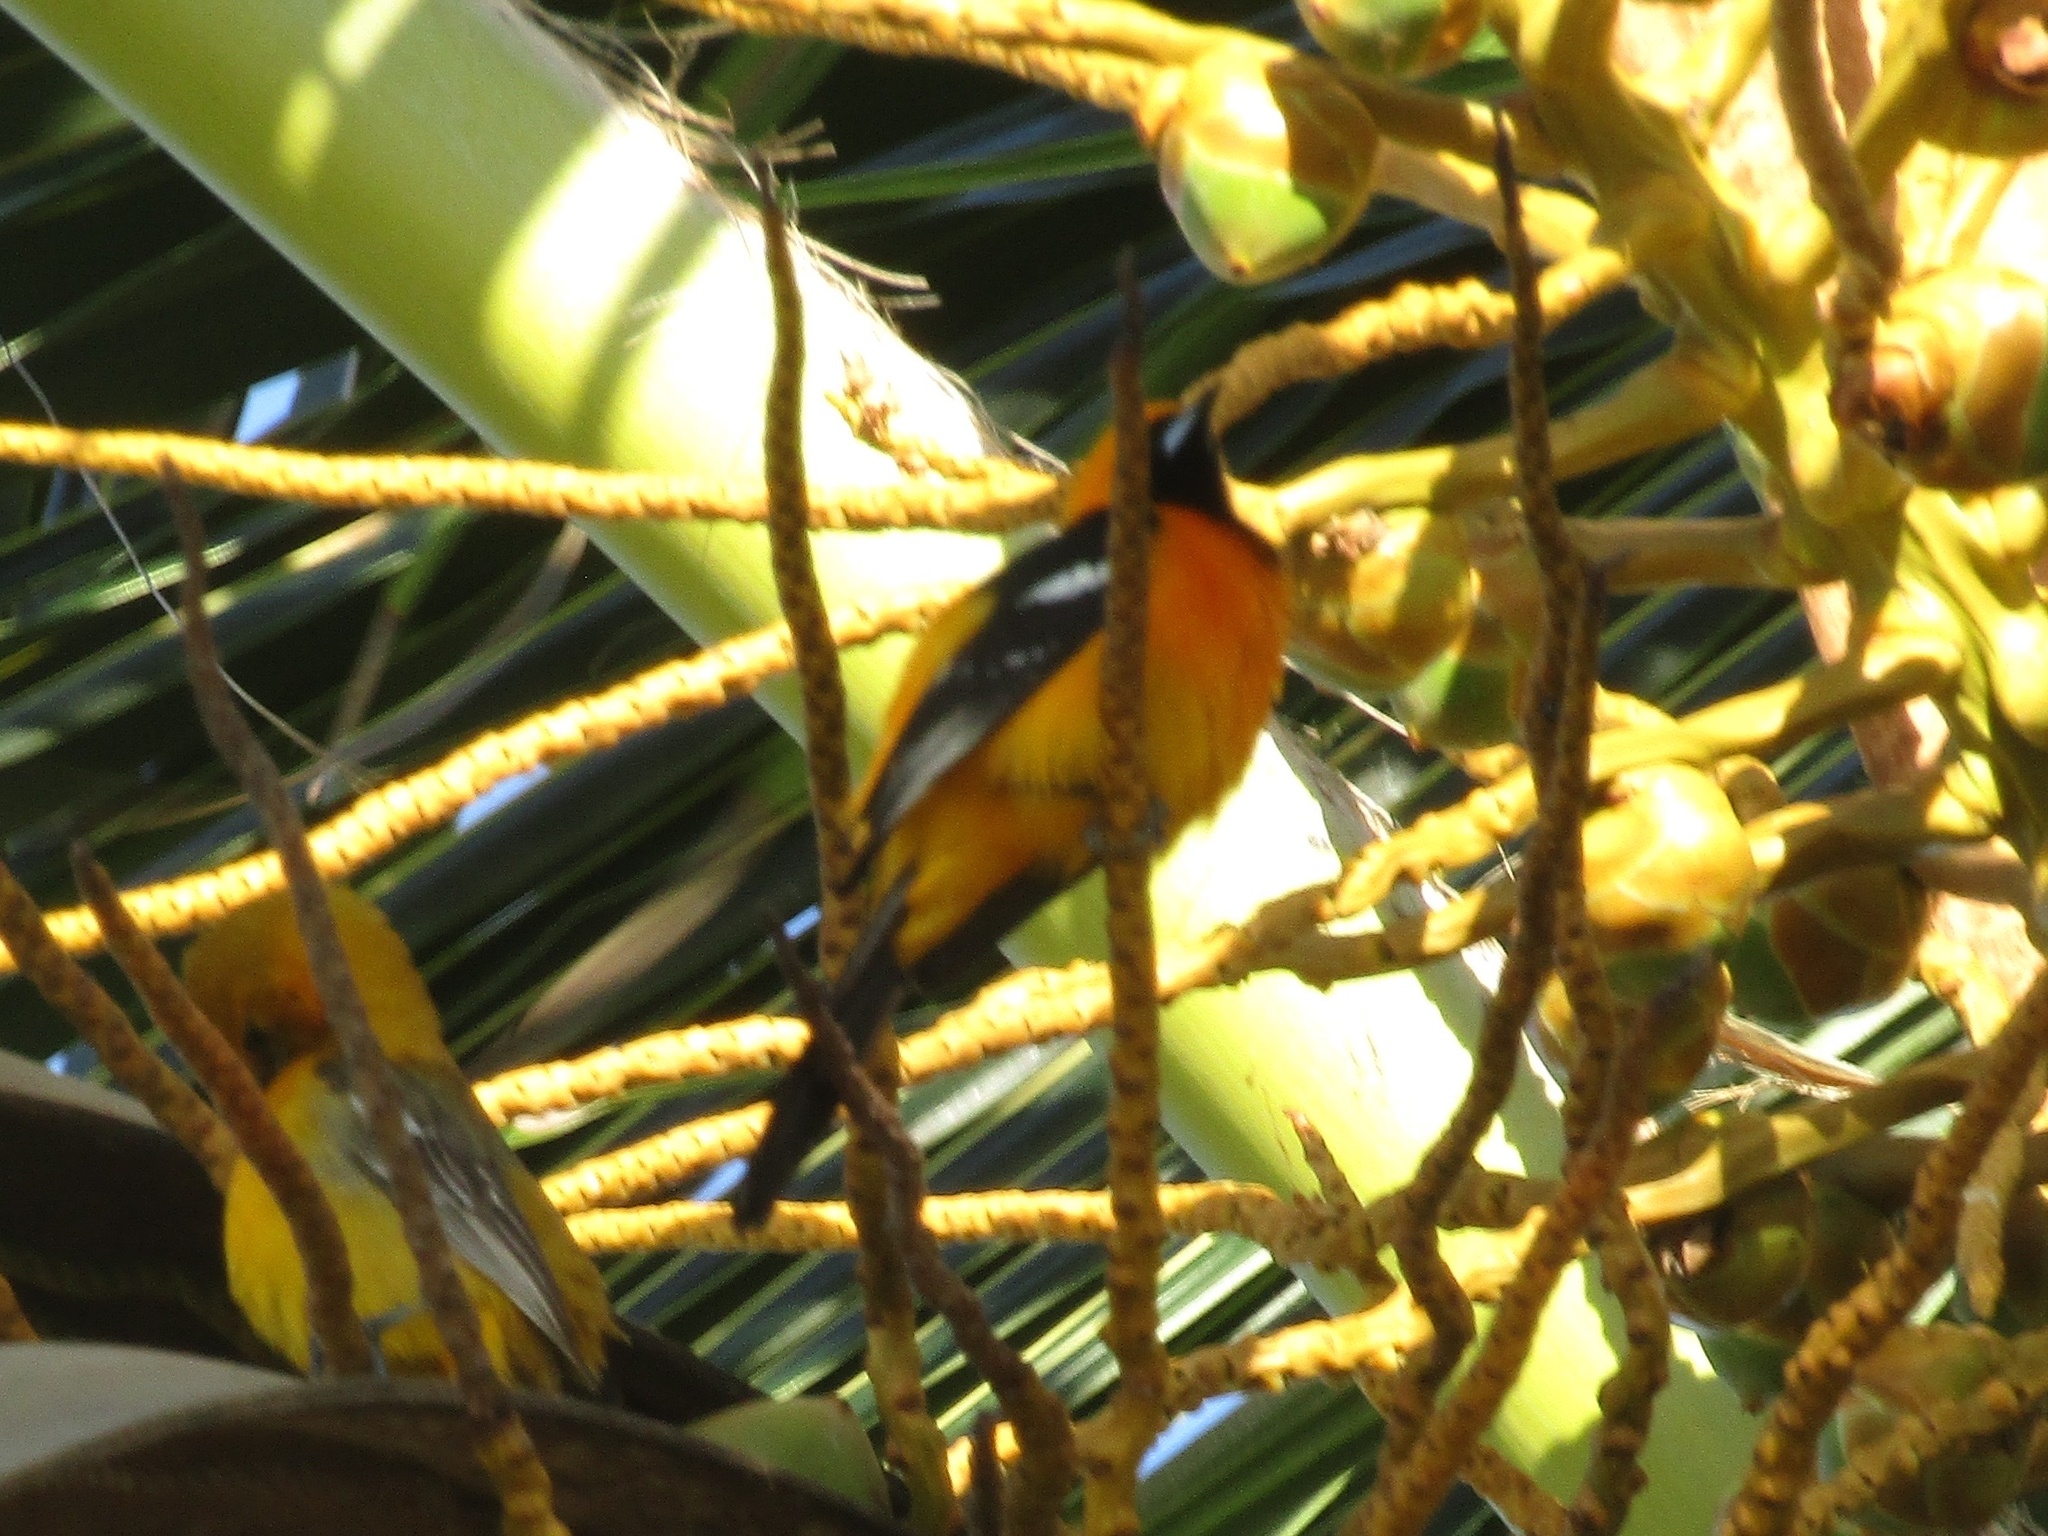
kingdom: Animalia
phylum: Chordata
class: Aves
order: Passeriformes
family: Icteridae
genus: Icterus
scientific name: Icterus cucullatus
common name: Hooded oriole
